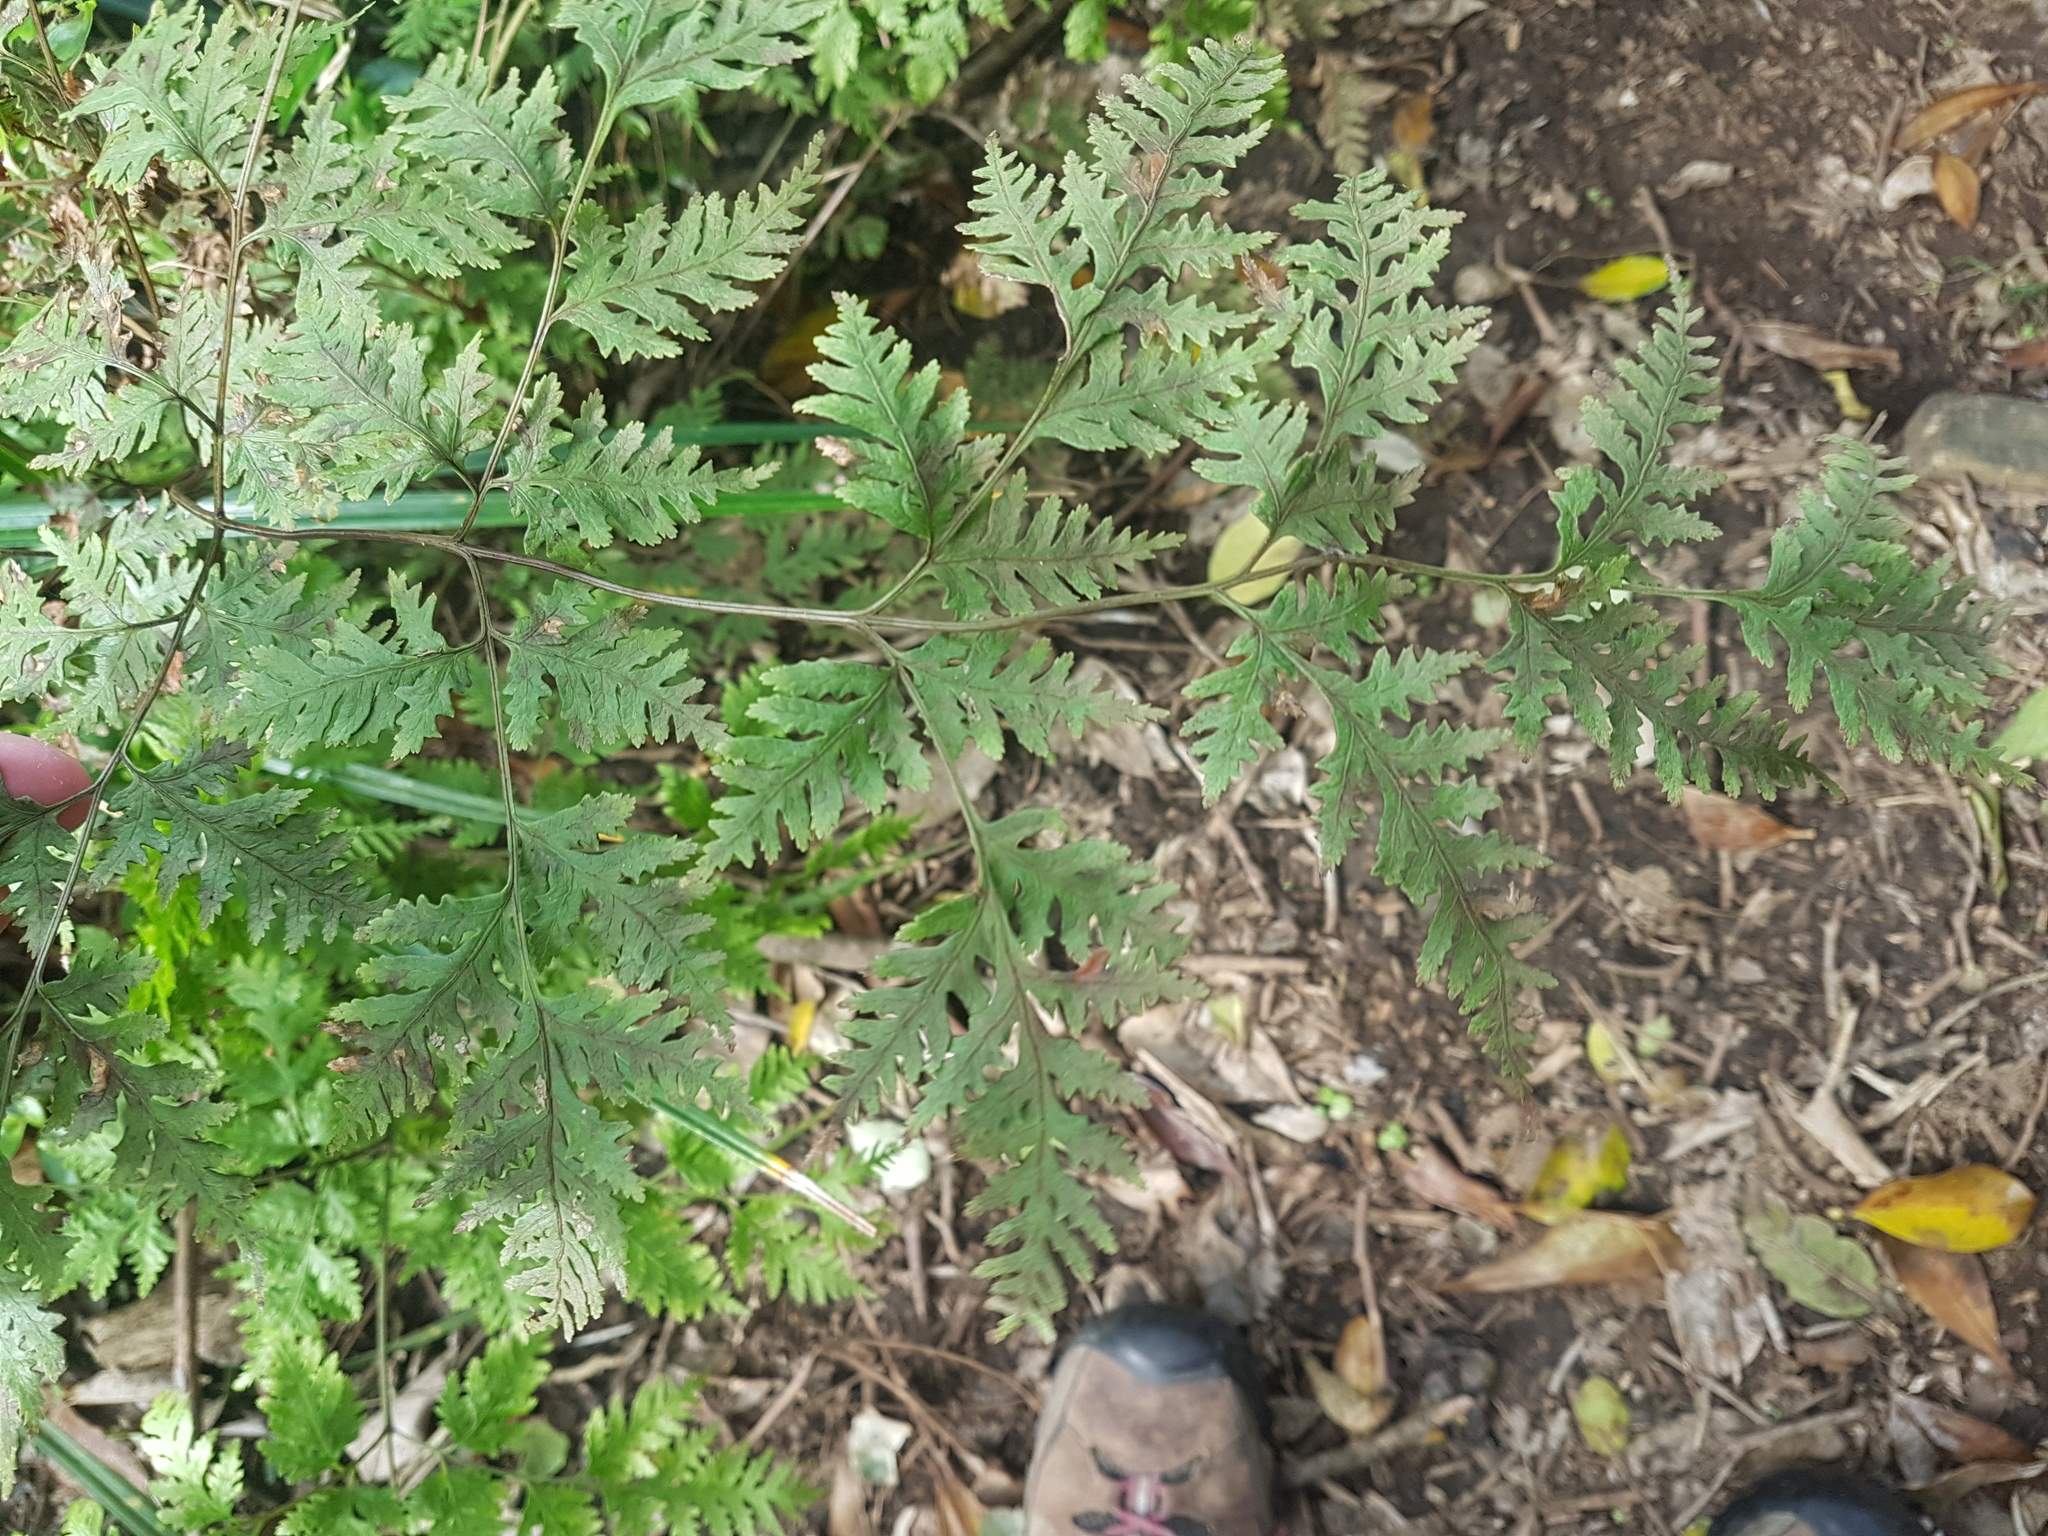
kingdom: Plantae
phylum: Tracheophyta
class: Polypodiopsida
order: Polypodiales
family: Pteridaceae
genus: Pteris
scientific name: Pteris macilenta
